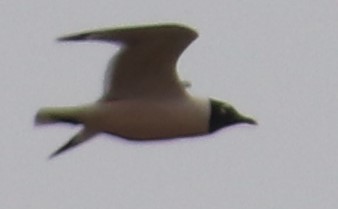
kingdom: Animalia
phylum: Chordata
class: Aves
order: Charadriiformes
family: Laridae
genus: Leucophaeus
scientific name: Leucophaeus pipixcan
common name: Franklin's gull
